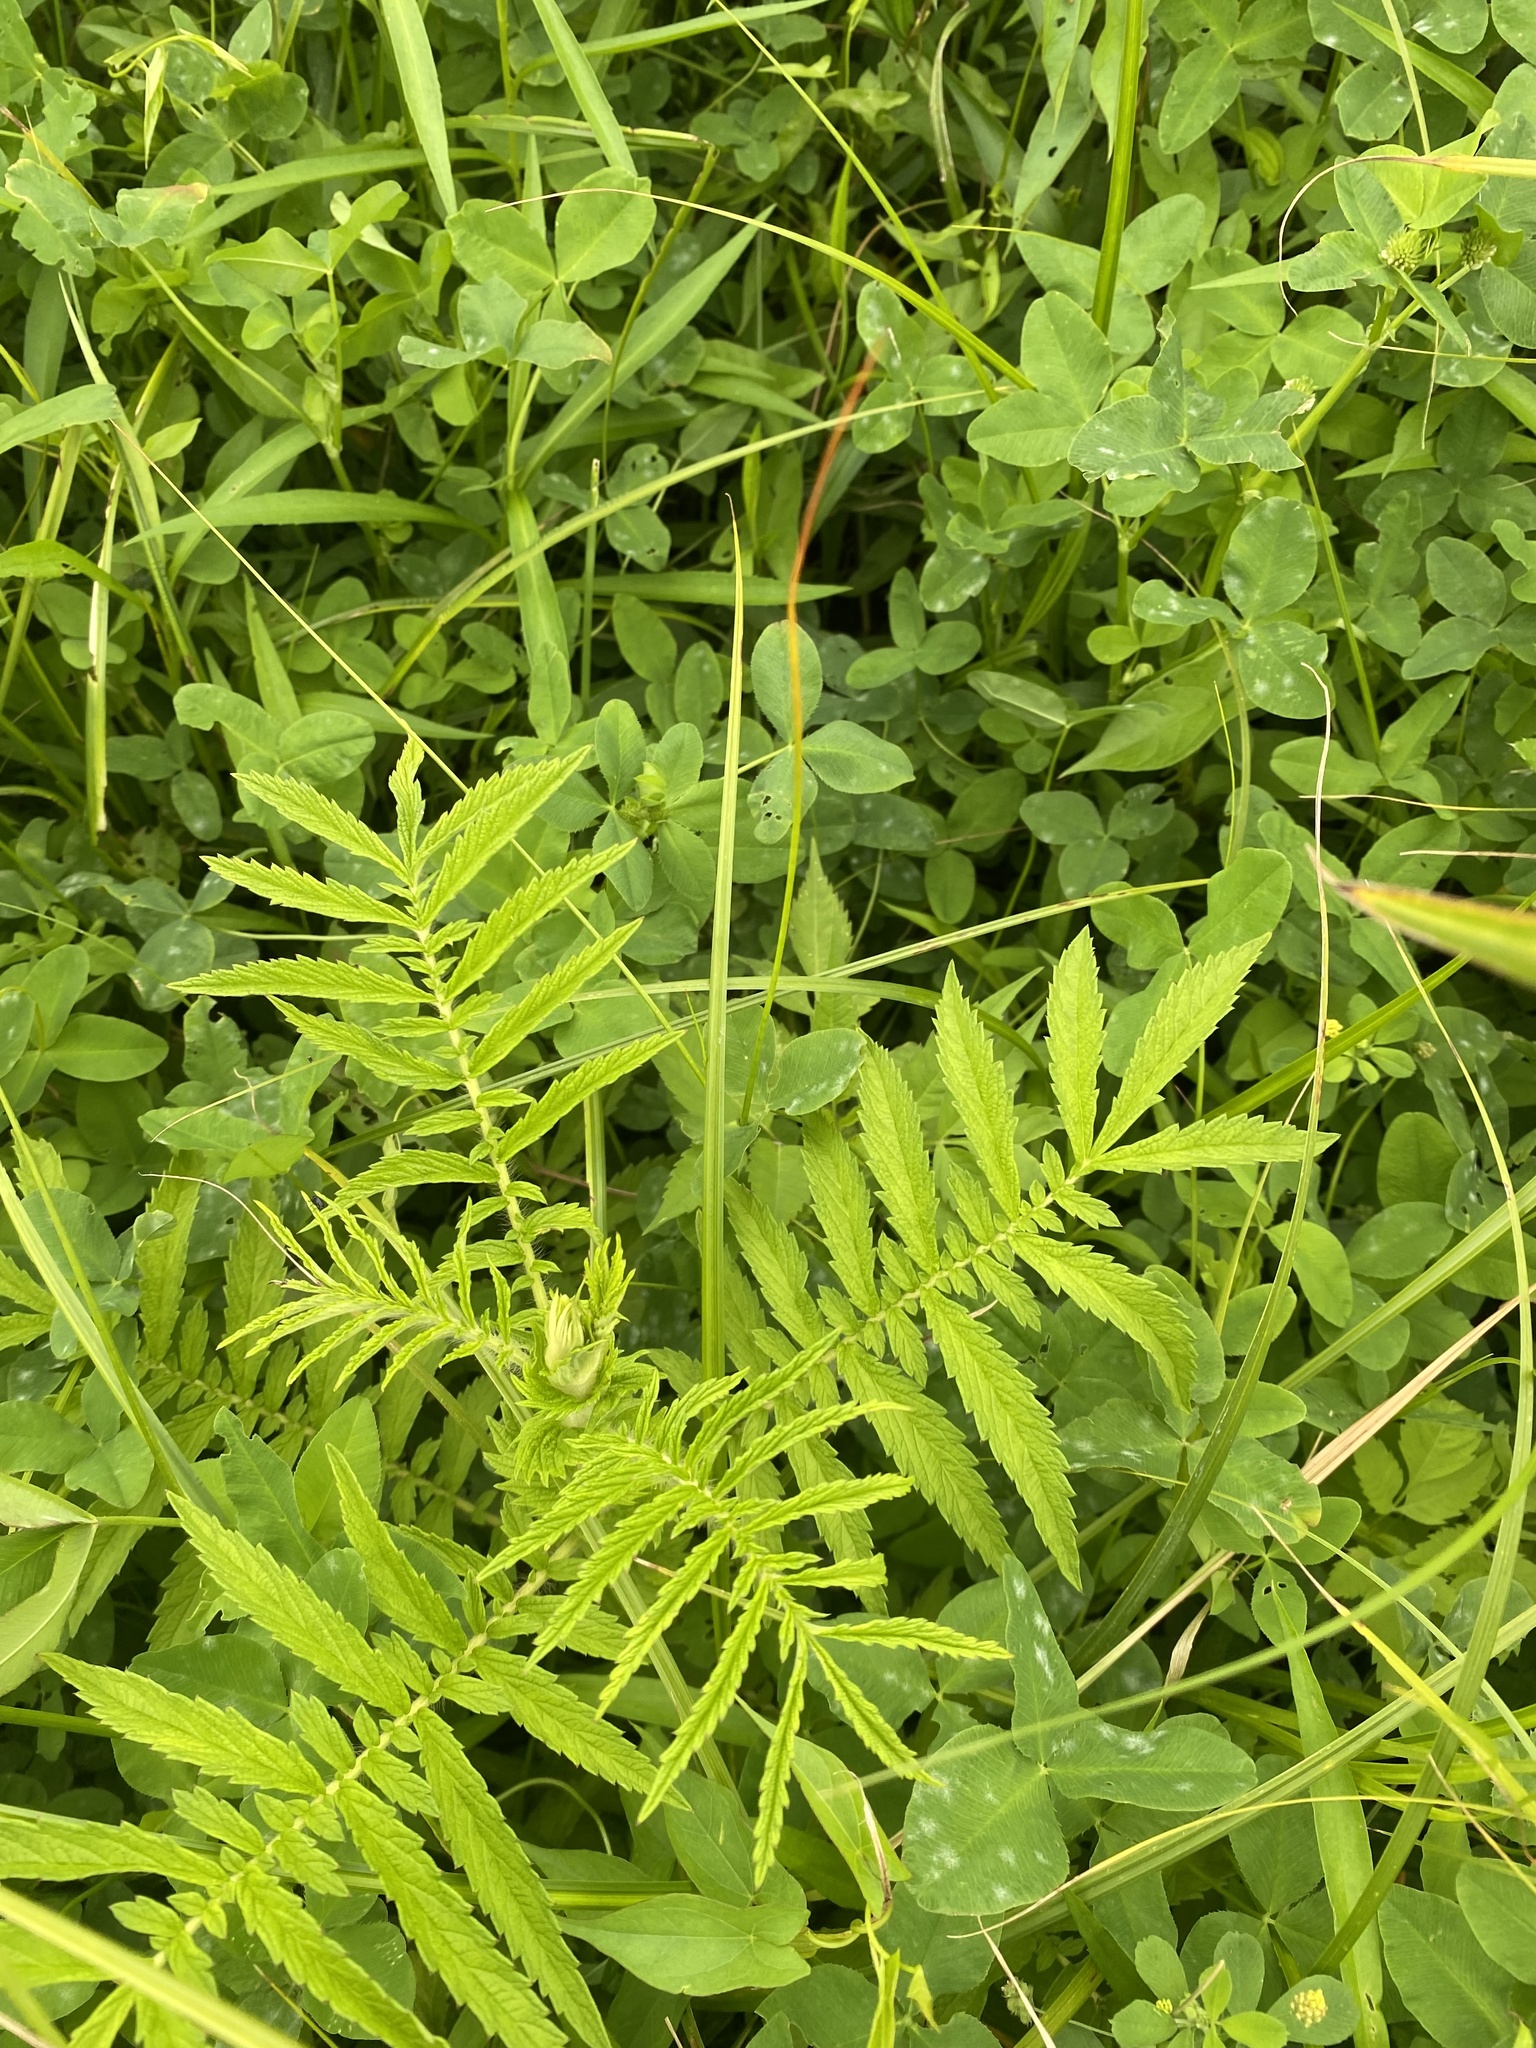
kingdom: Plantae
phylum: Tracheophyta
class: Magnoliopsida
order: Rosales
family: Rosaceae
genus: Agrimonia
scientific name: Agrimonia parviflora
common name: Harvest-lice
